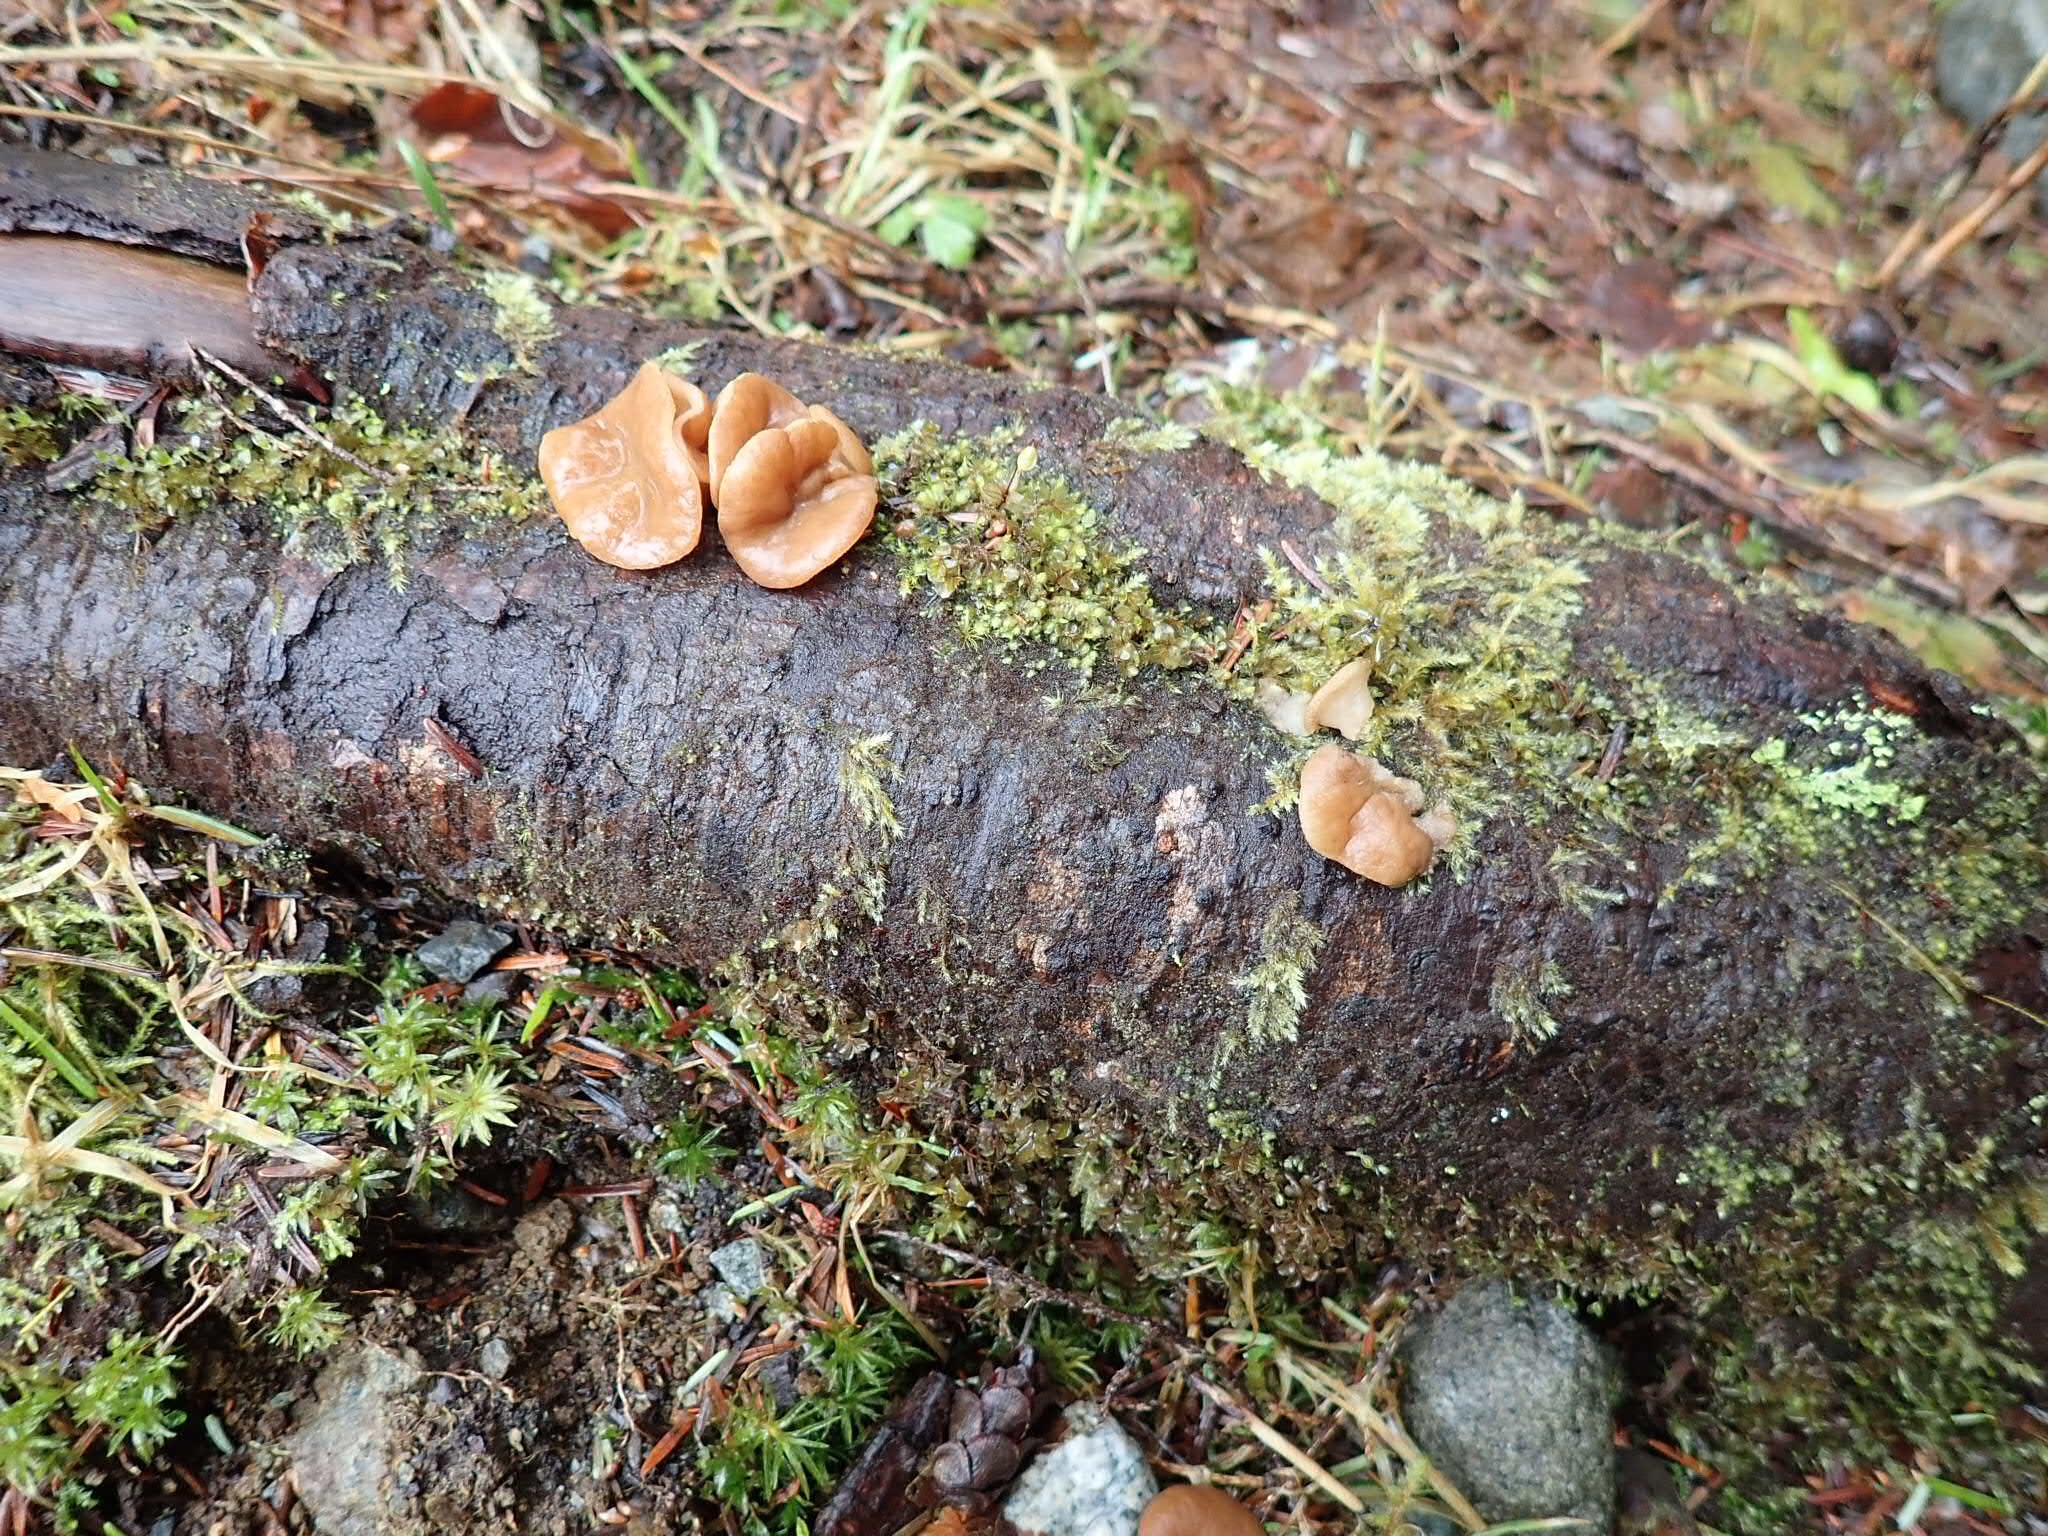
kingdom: Fungi
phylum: Ascomycota
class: Pezizomycetes
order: Pezizales
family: Discinaceae
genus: Discina
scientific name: Discina ancilis
